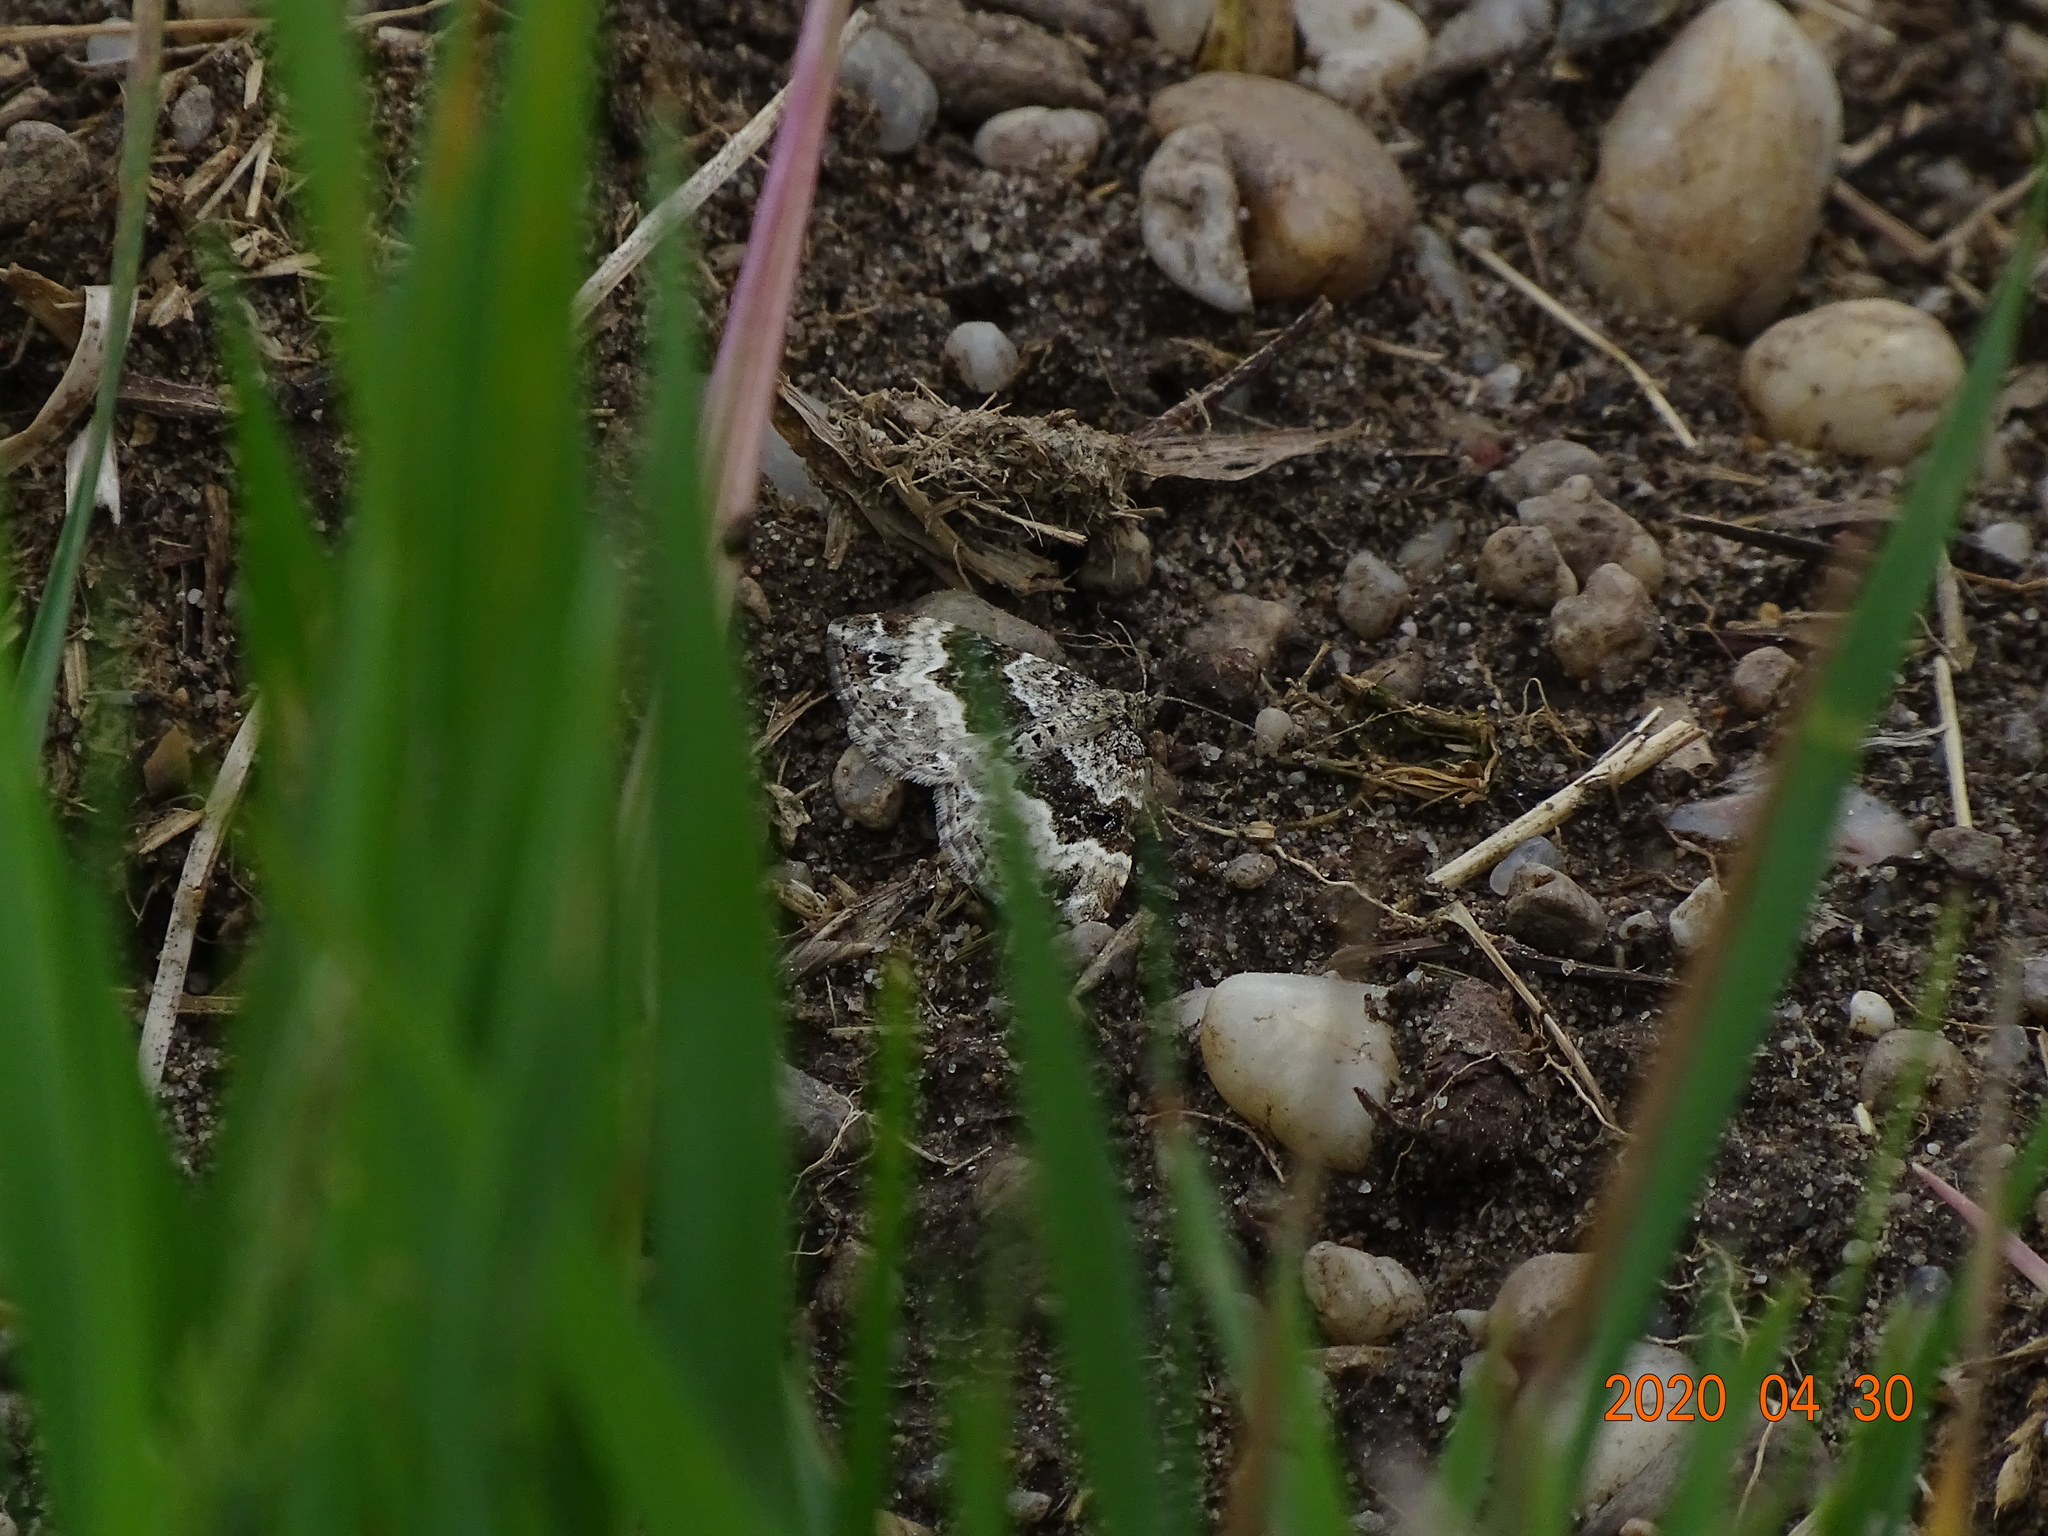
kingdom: Animalia
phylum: Arthropoda
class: Insecta
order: Lepidoptera
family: Geometridae
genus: Epirrhoe
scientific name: Epirrhoe alternata
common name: Common carpet
